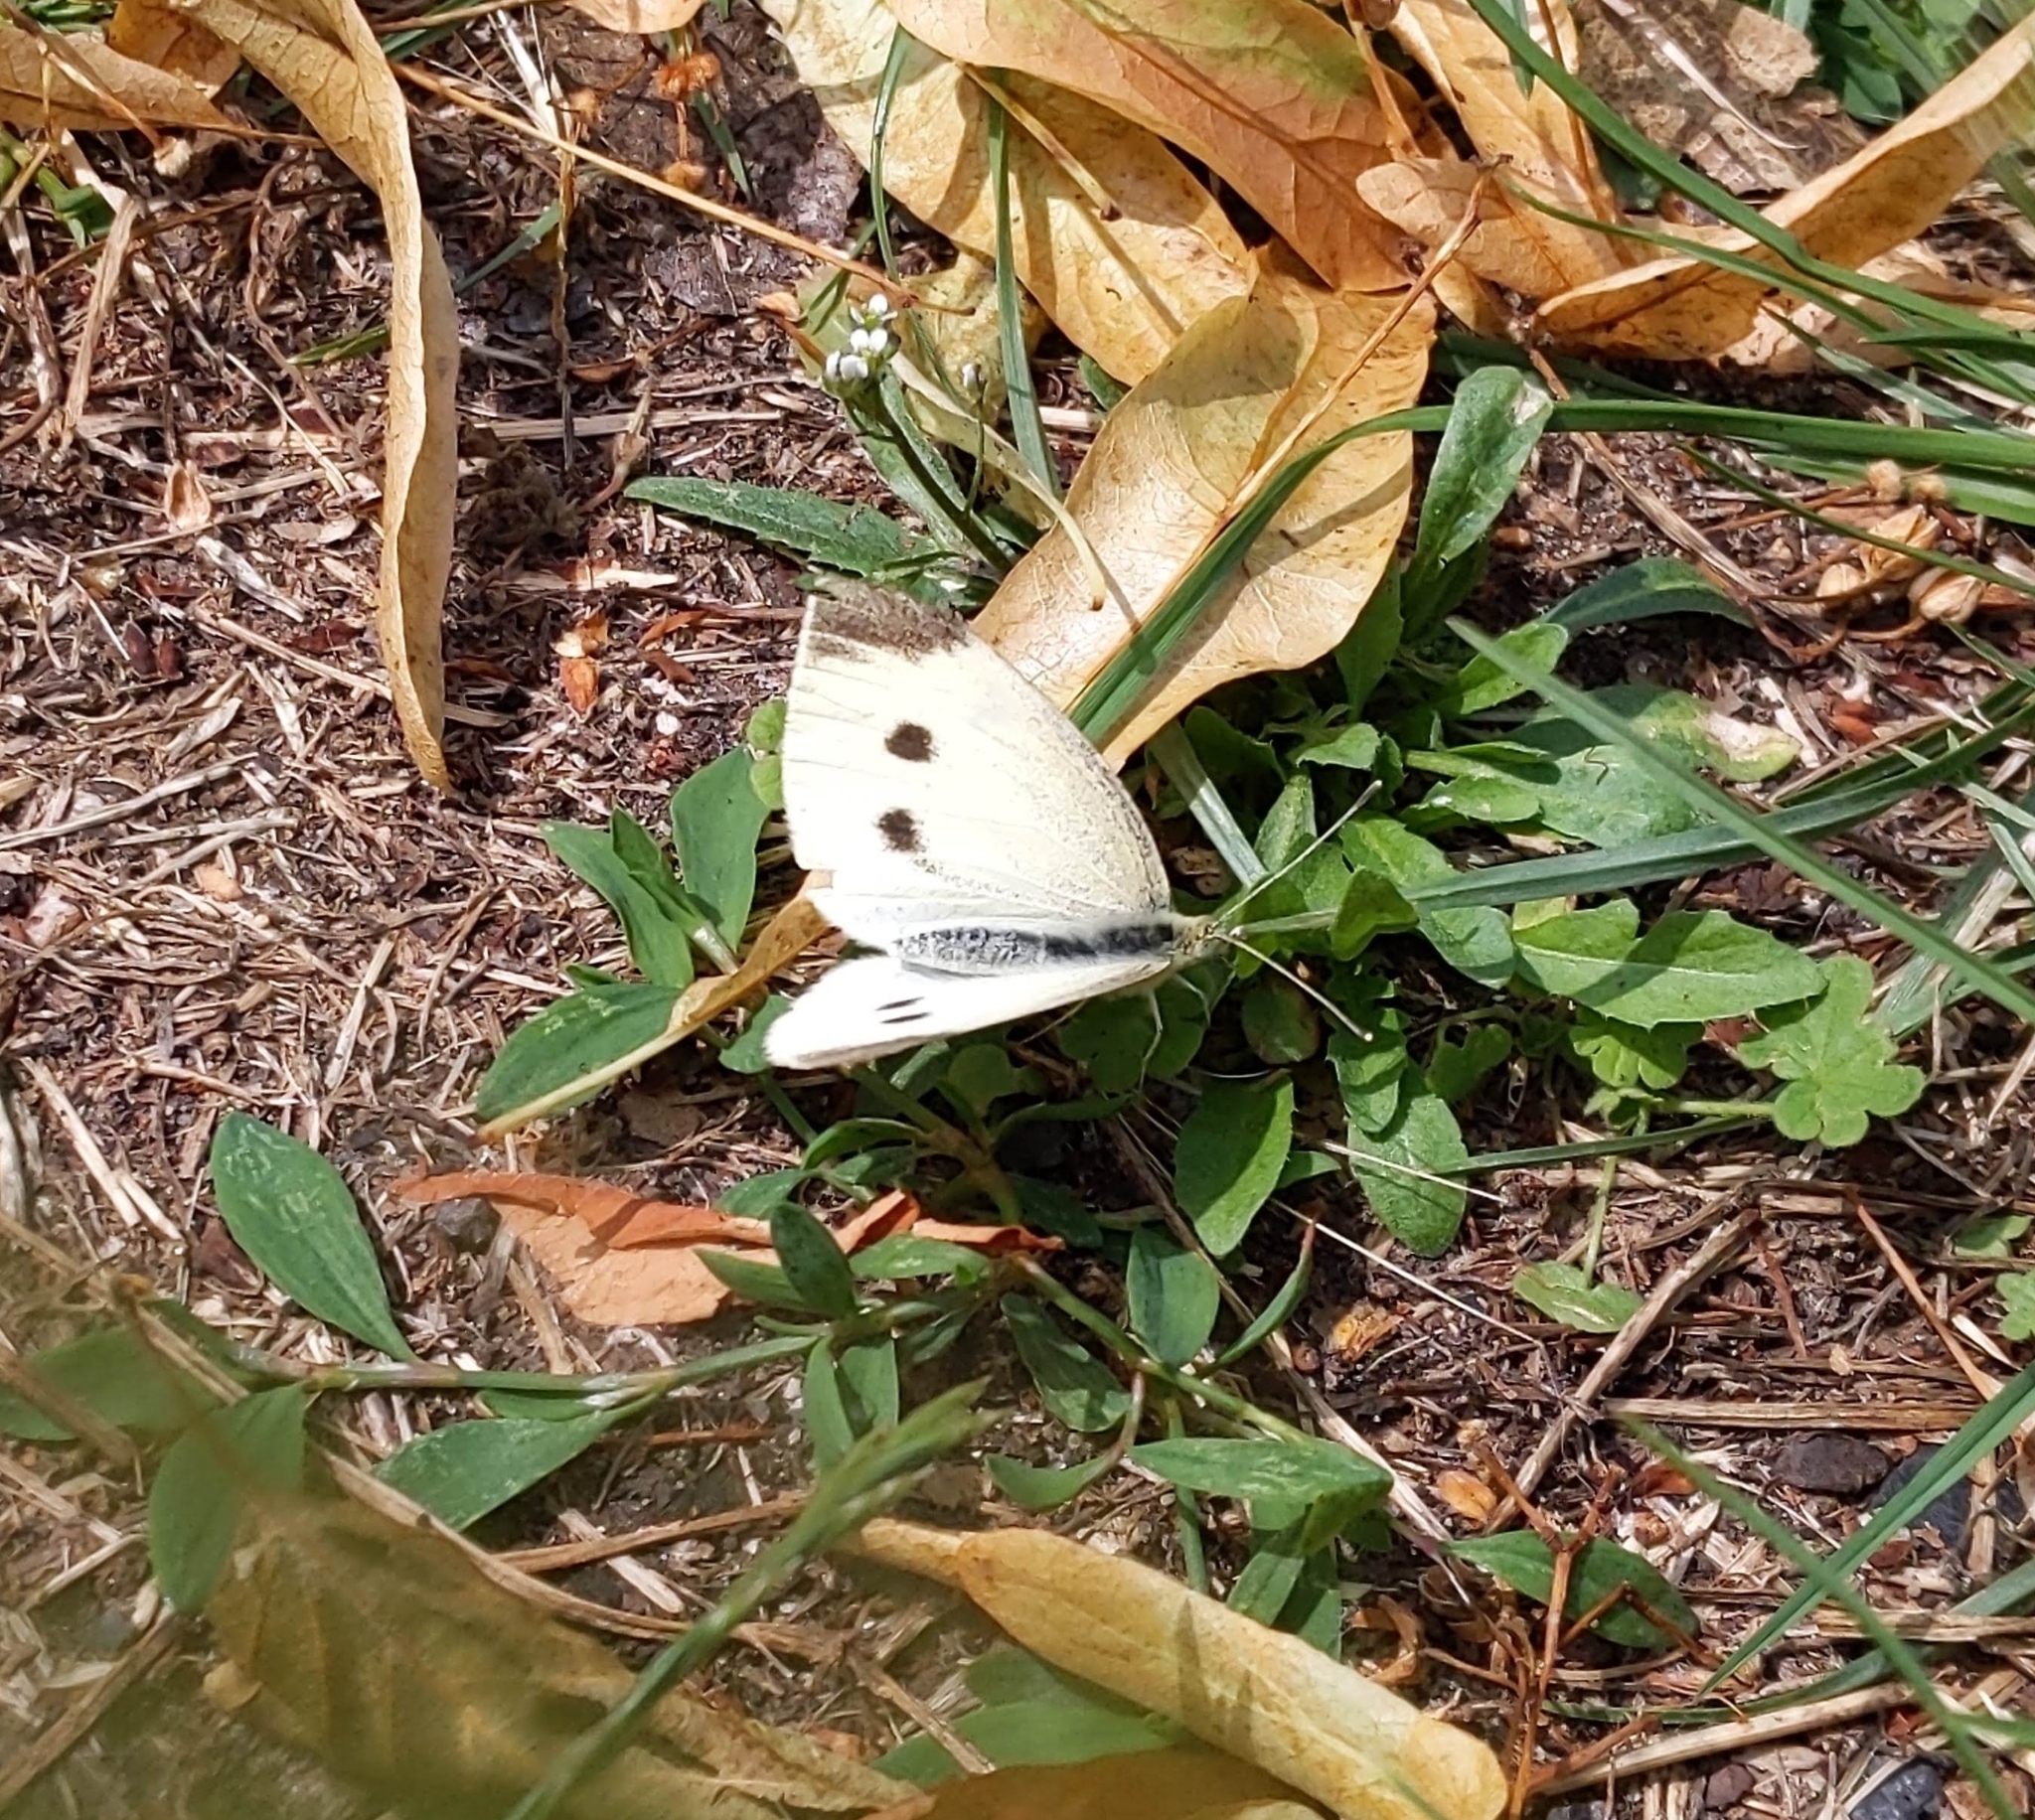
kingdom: Animalia
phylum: Arthropoda
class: Insecta
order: Lepidoptera
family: Pieridae
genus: Pieris
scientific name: Pieris rapae
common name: Small white
